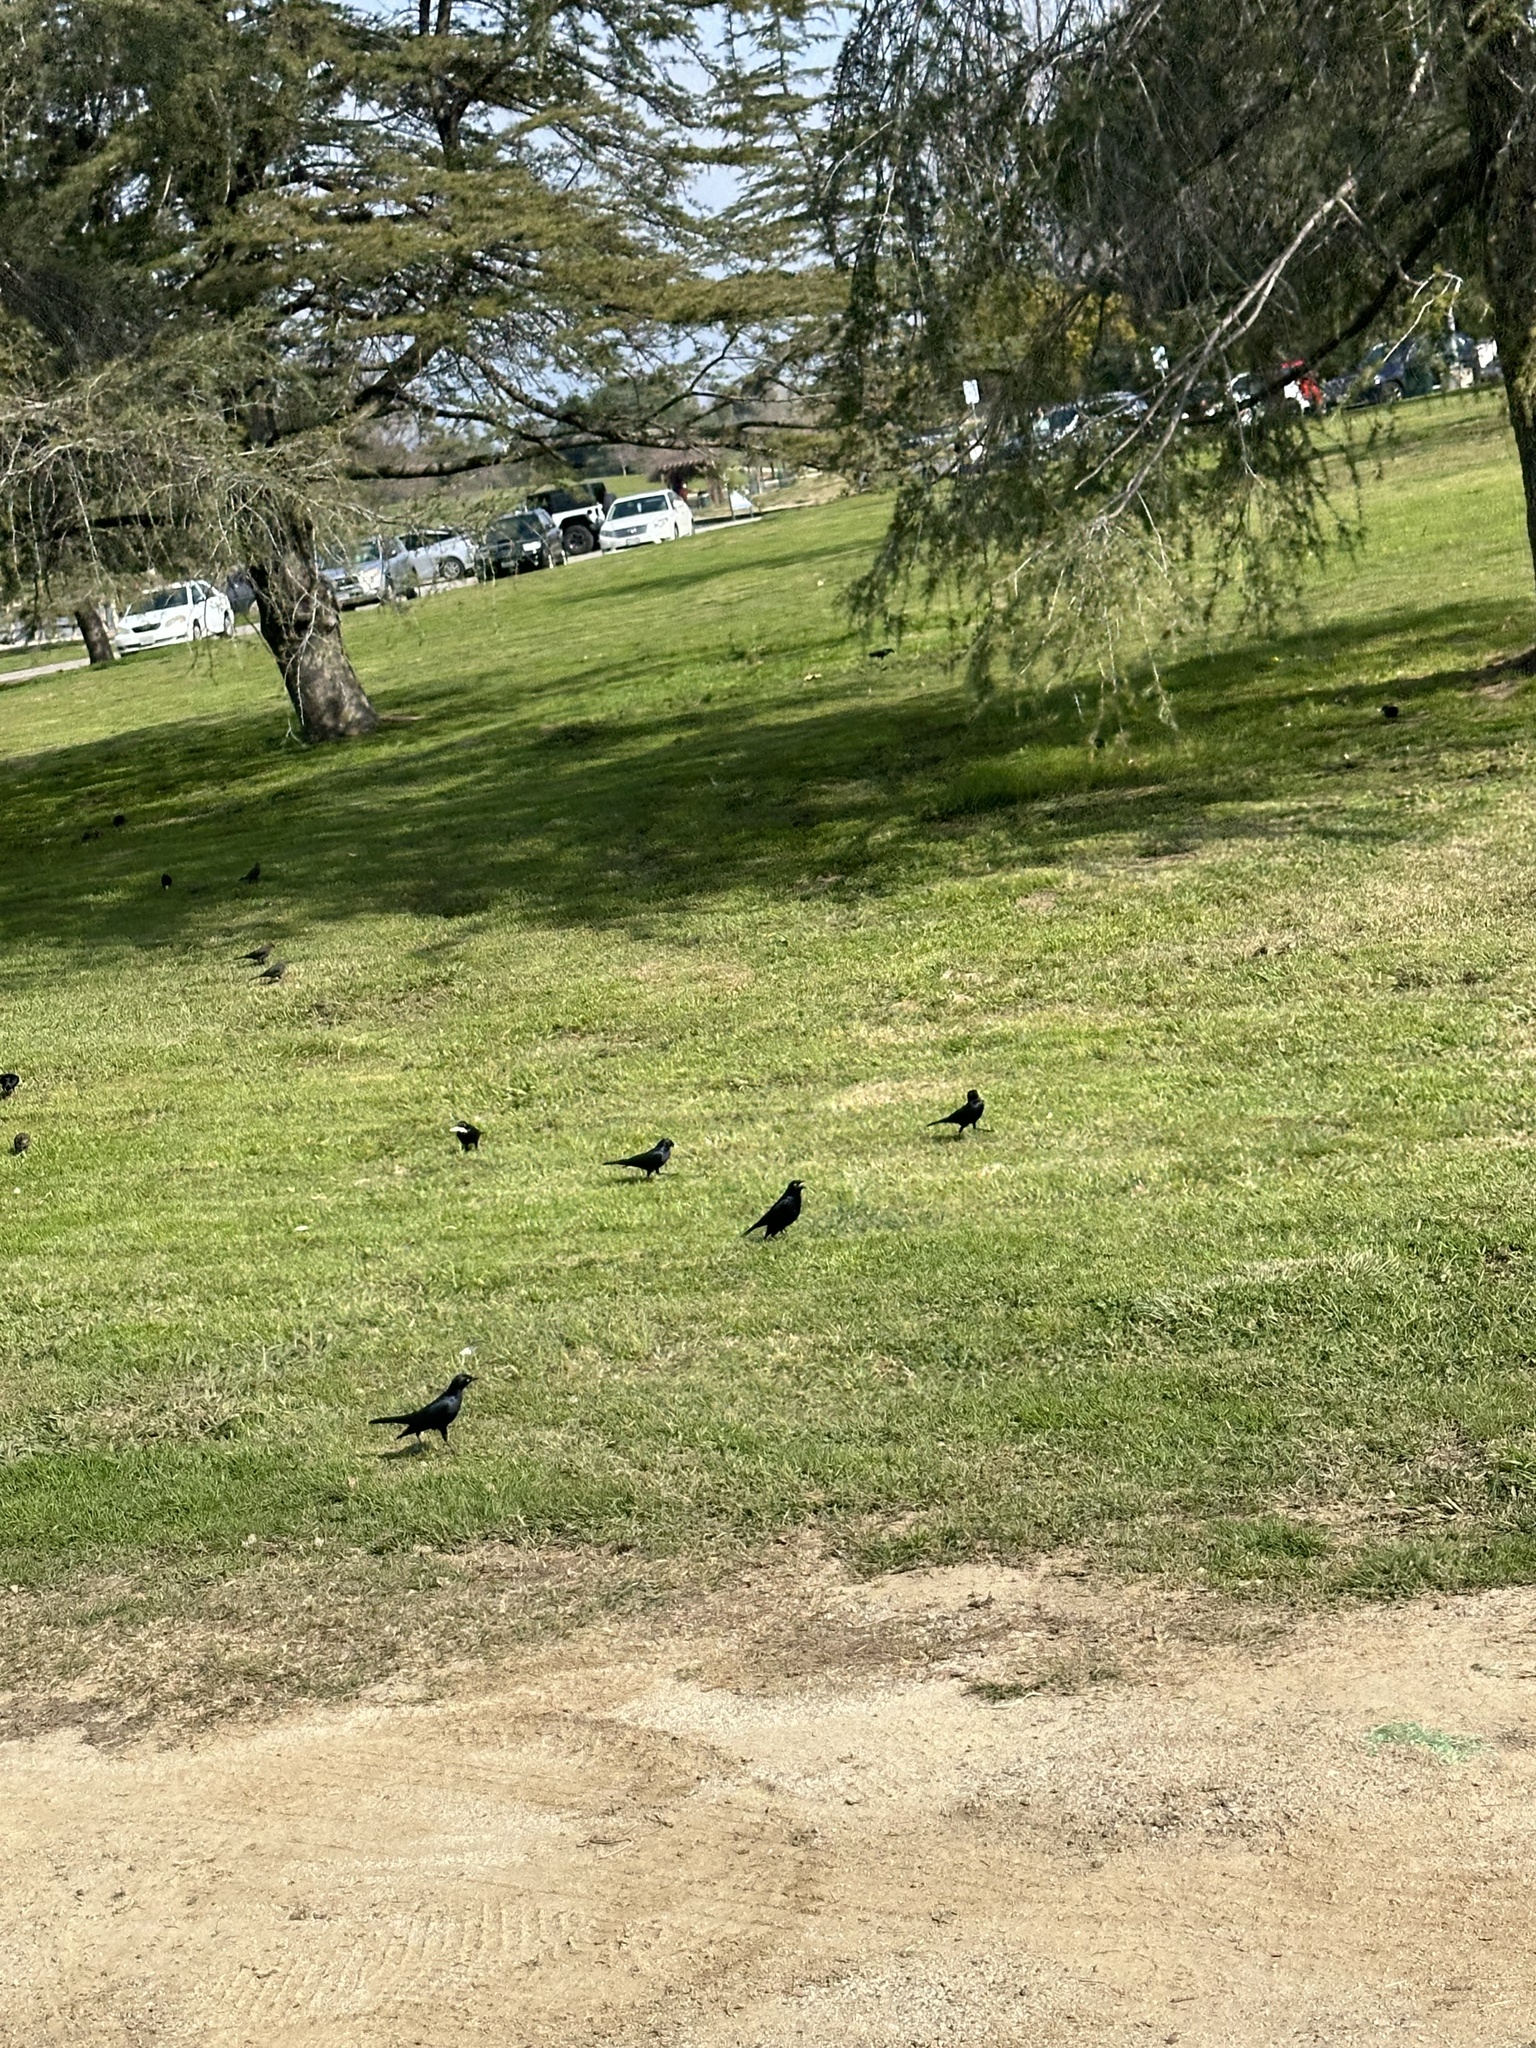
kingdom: Animalia
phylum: Chordata
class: Aves
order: Passeriformes
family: Icteridae
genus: Euphagus
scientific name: Euphagus cyanocephalus
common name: Brewer's blackbird
